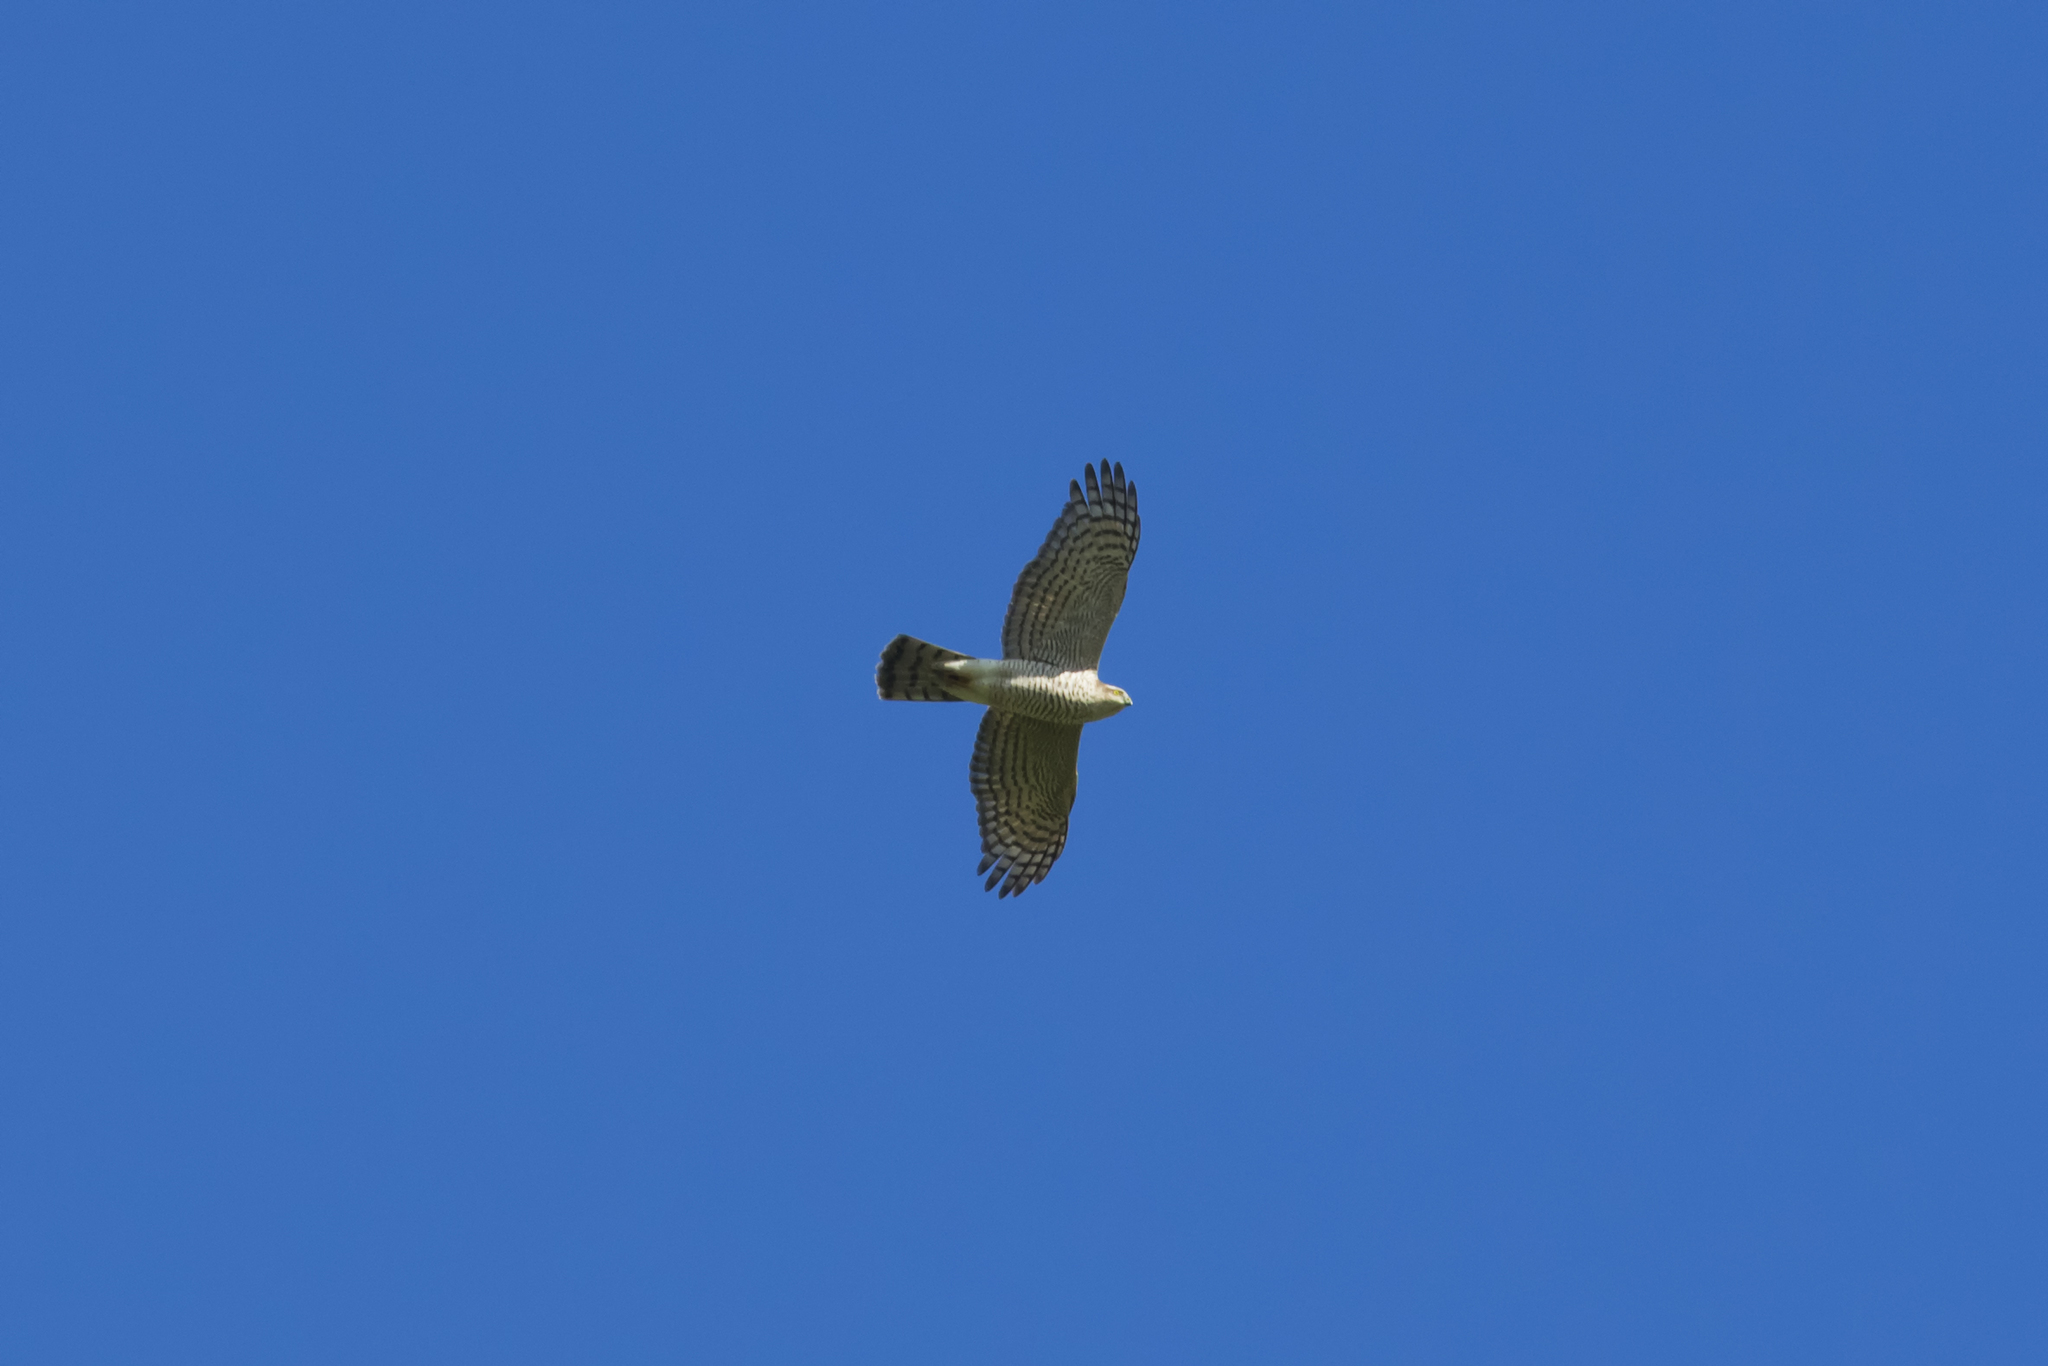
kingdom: Animalia
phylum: Chordata
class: Aves
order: Accipitriformes
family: Accipitridae
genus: Accipiter
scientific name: Accipiter nisus
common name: Eurasian sparrowhawk
